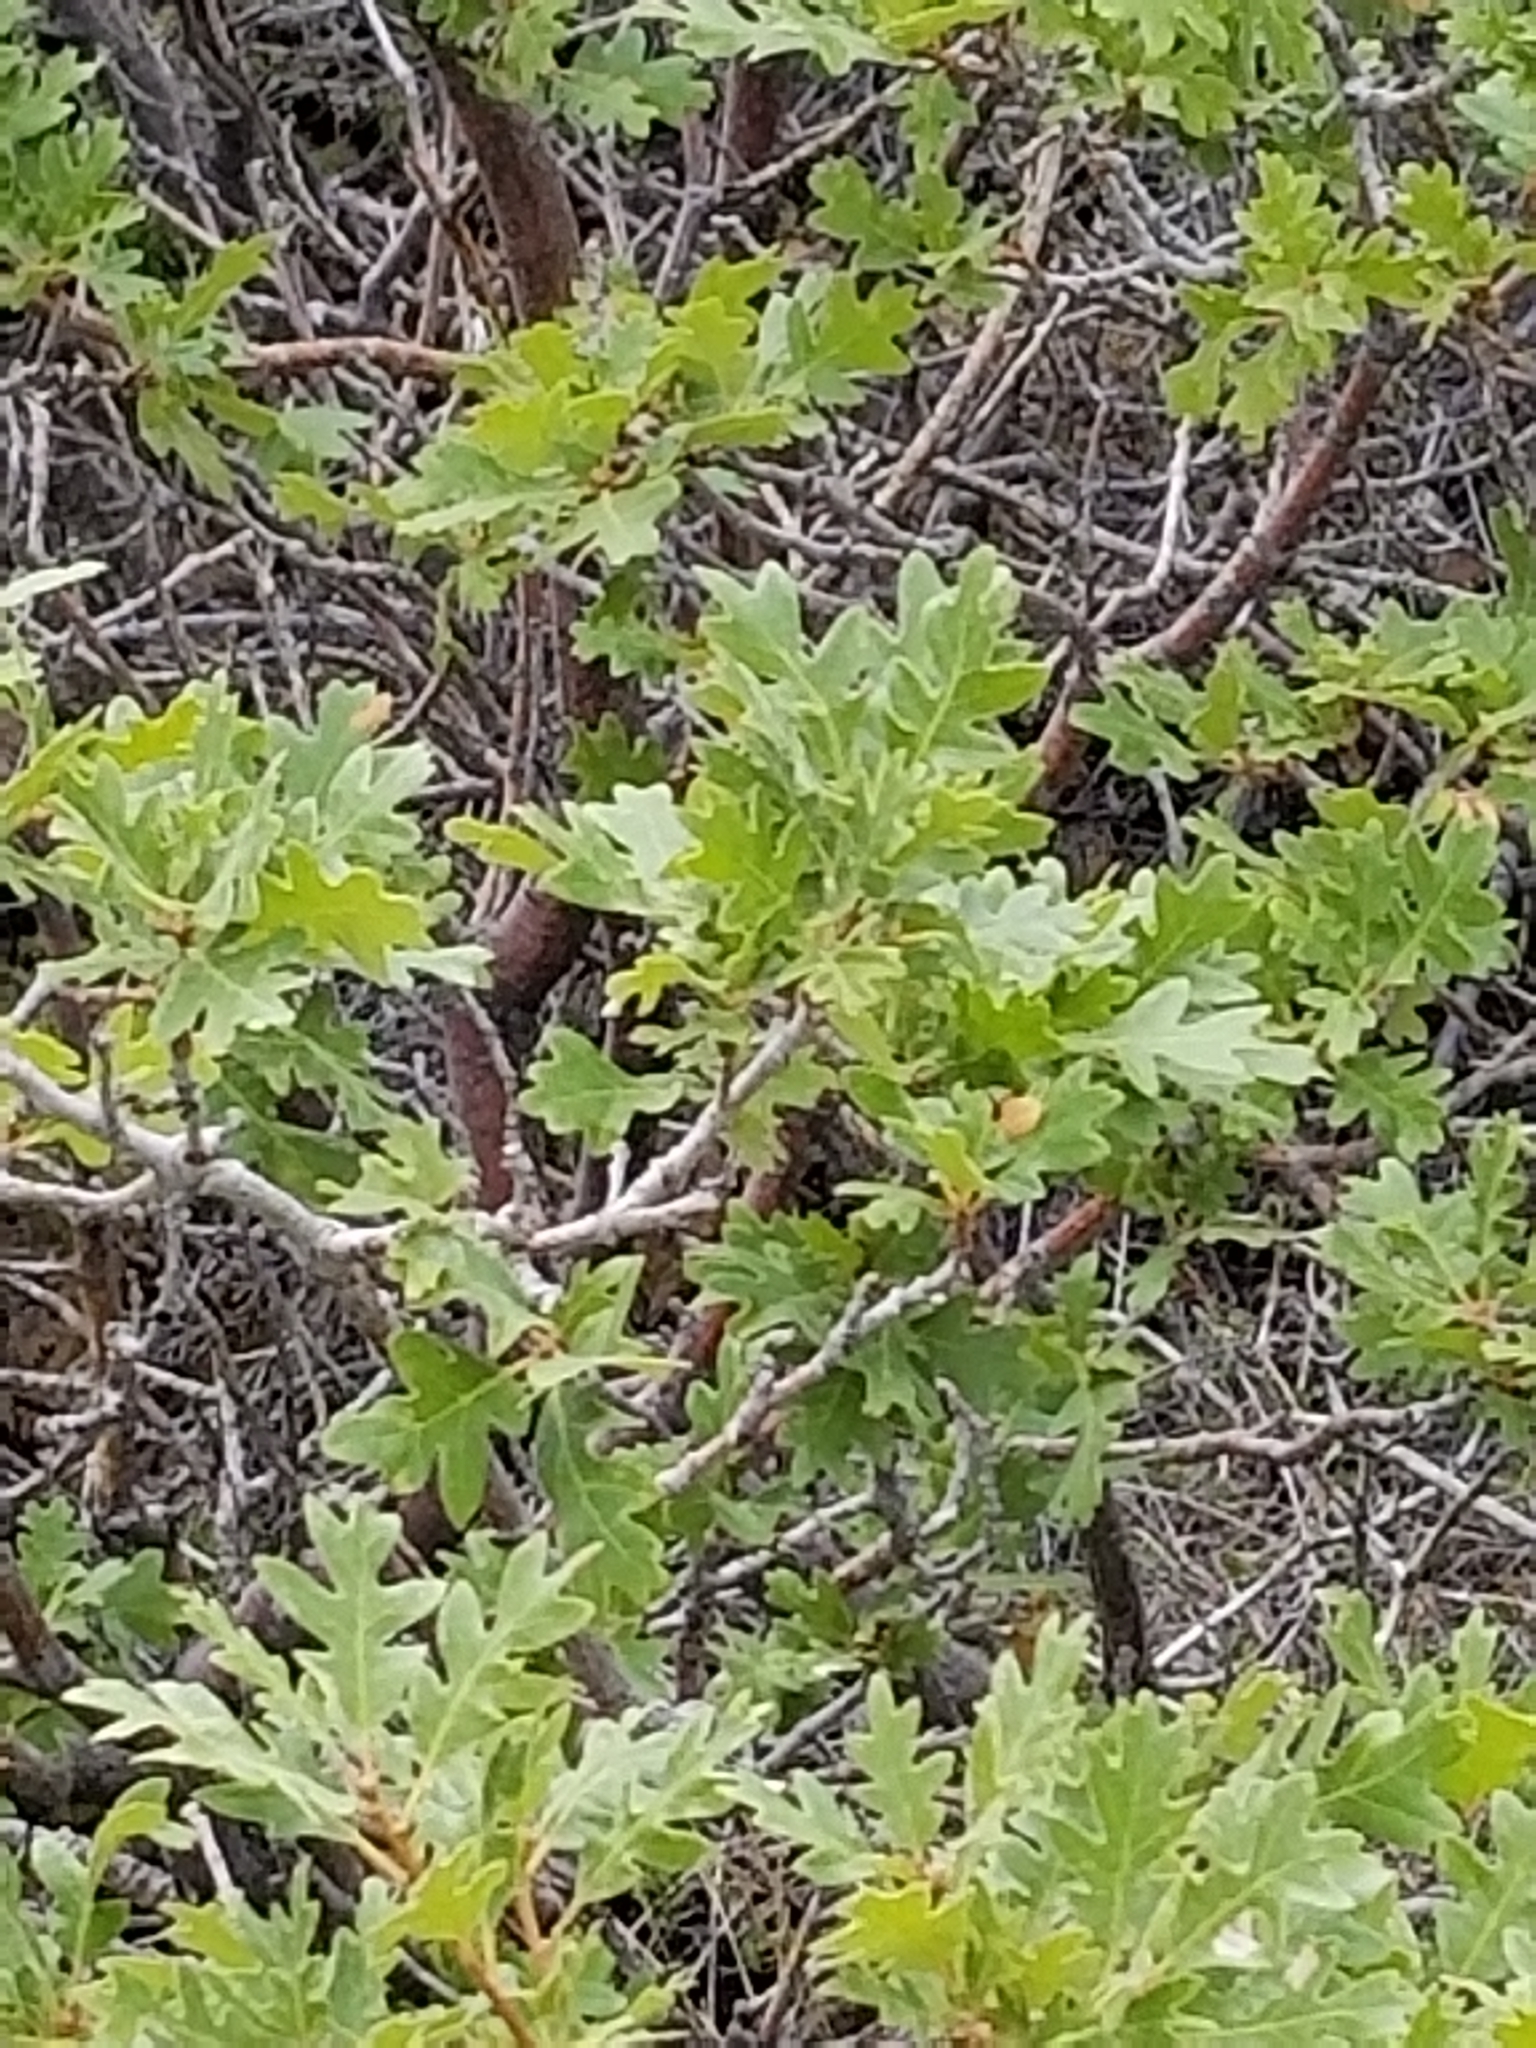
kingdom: Plantae
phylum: Tracheophyta
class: Magnoliopsida
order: Fagales
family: Fagaceae
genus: Quercus
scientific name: Quercus gambelii
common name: Gambel oak
